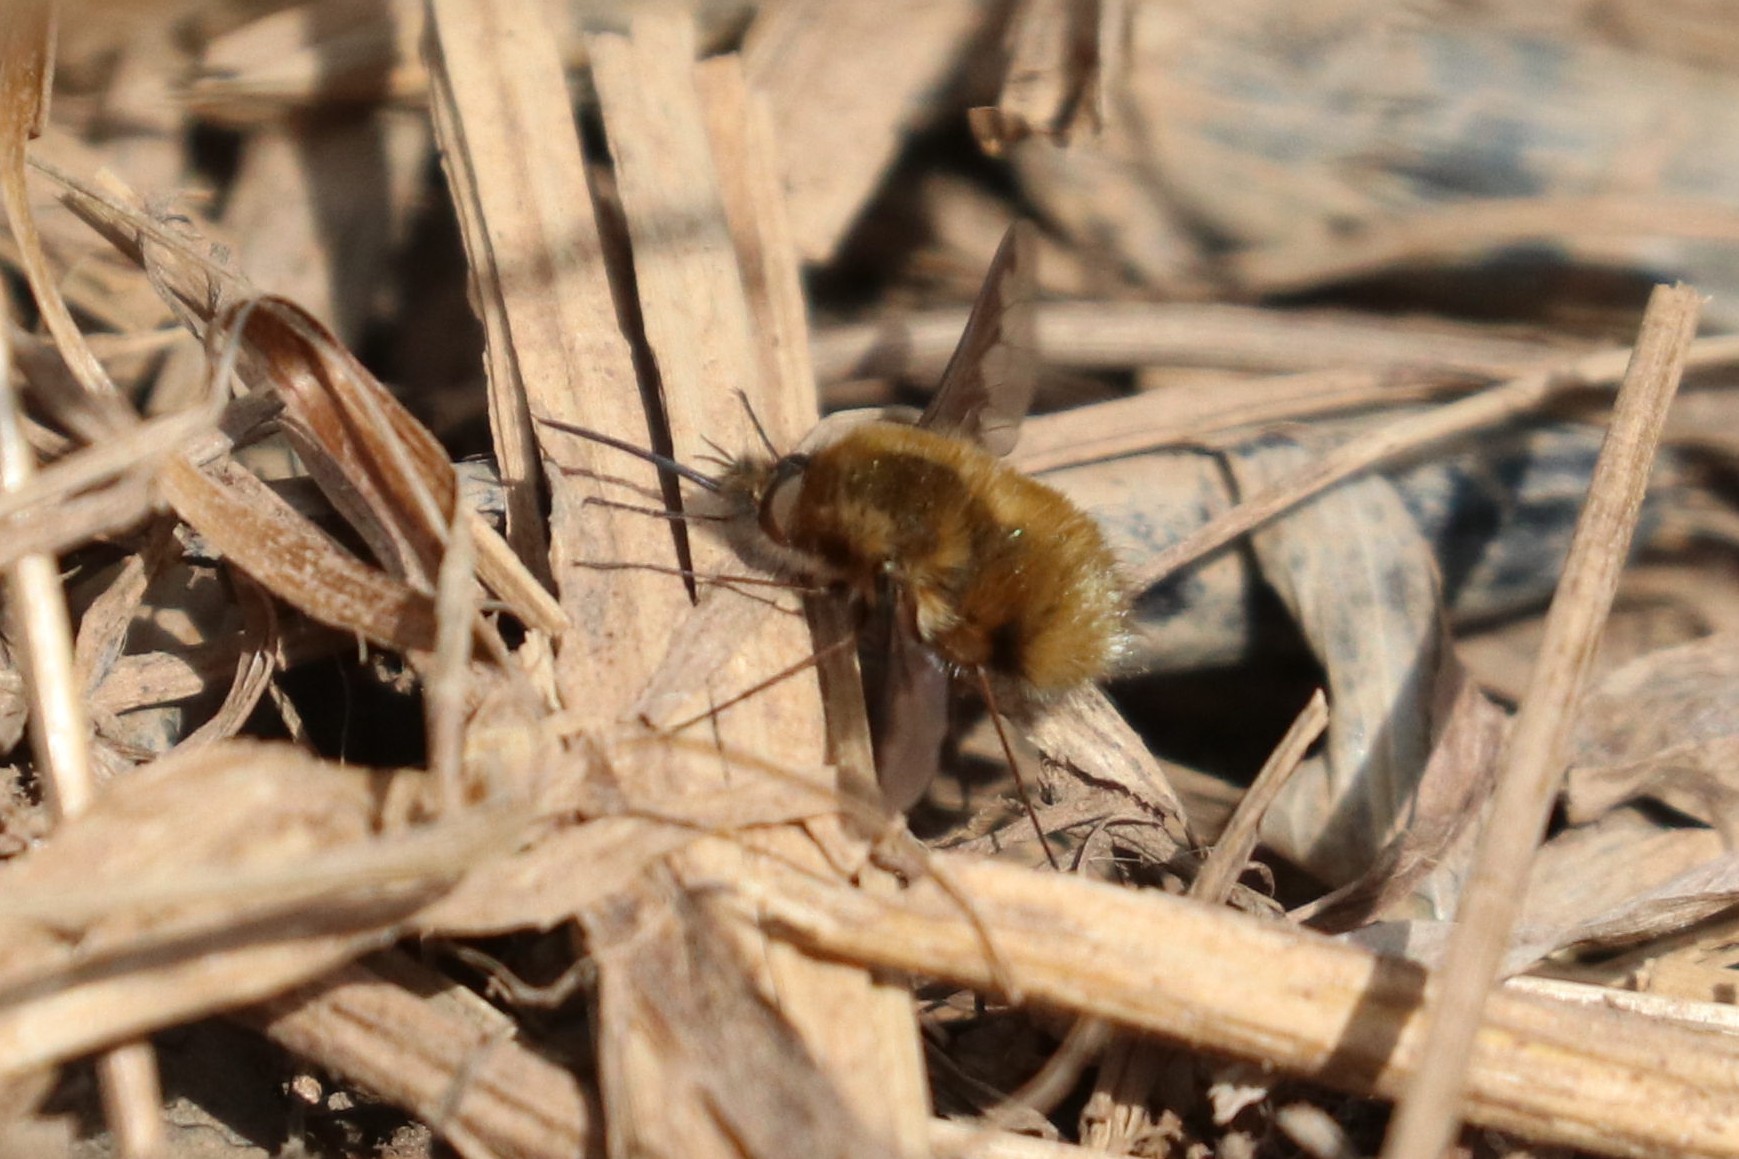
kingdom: Animalia
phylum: Arthropoda
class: Insecta
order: Diptera
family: Bombyliidae
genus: Bombylius
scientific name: Bombylius major
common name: Bee fly
